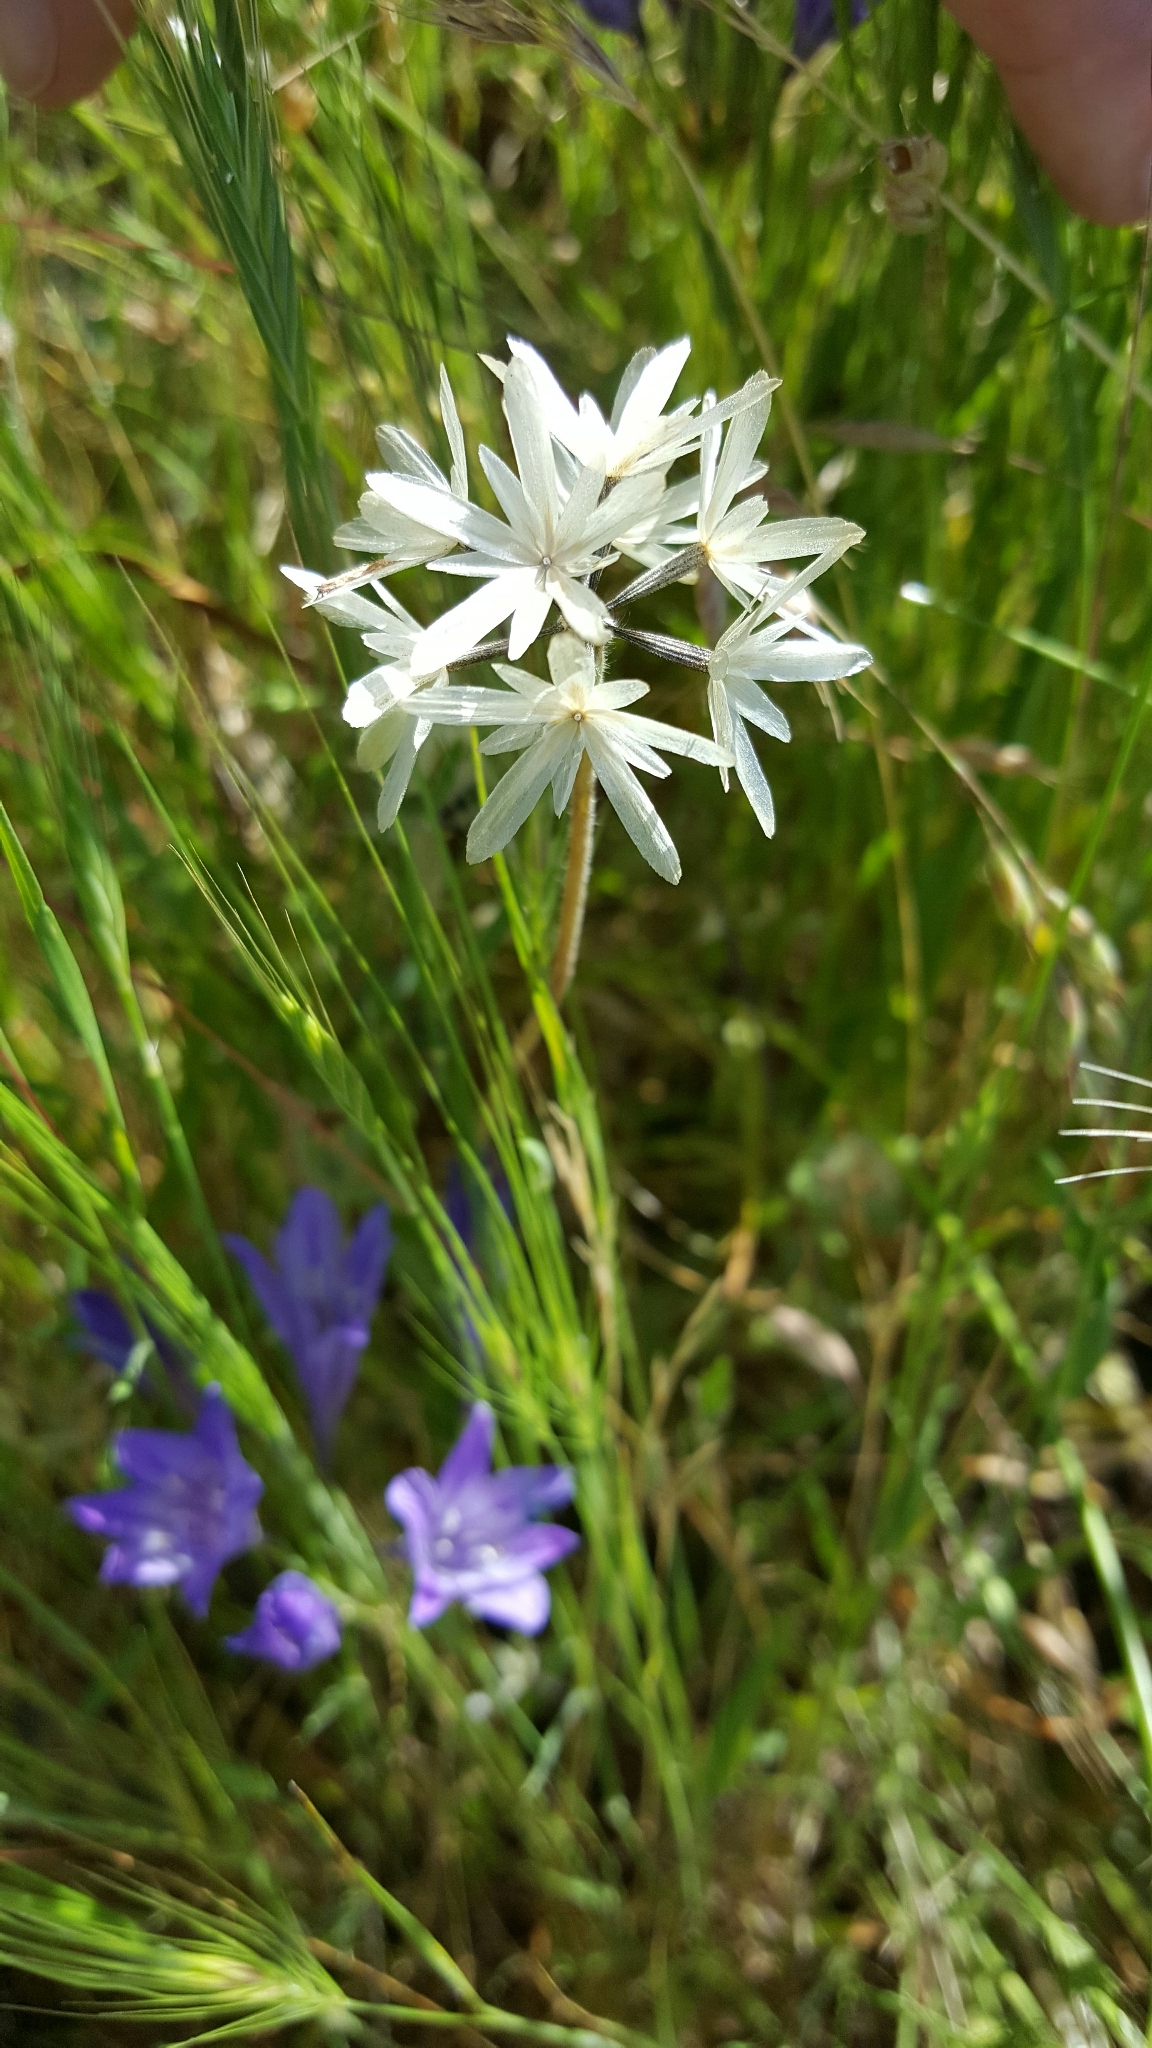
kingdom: Plantae
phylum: Tracheophyta
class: Magnoliopsida
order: Asterales
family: Asteraceae
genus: Achyrachaena
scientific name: Achyrachaena mollis
